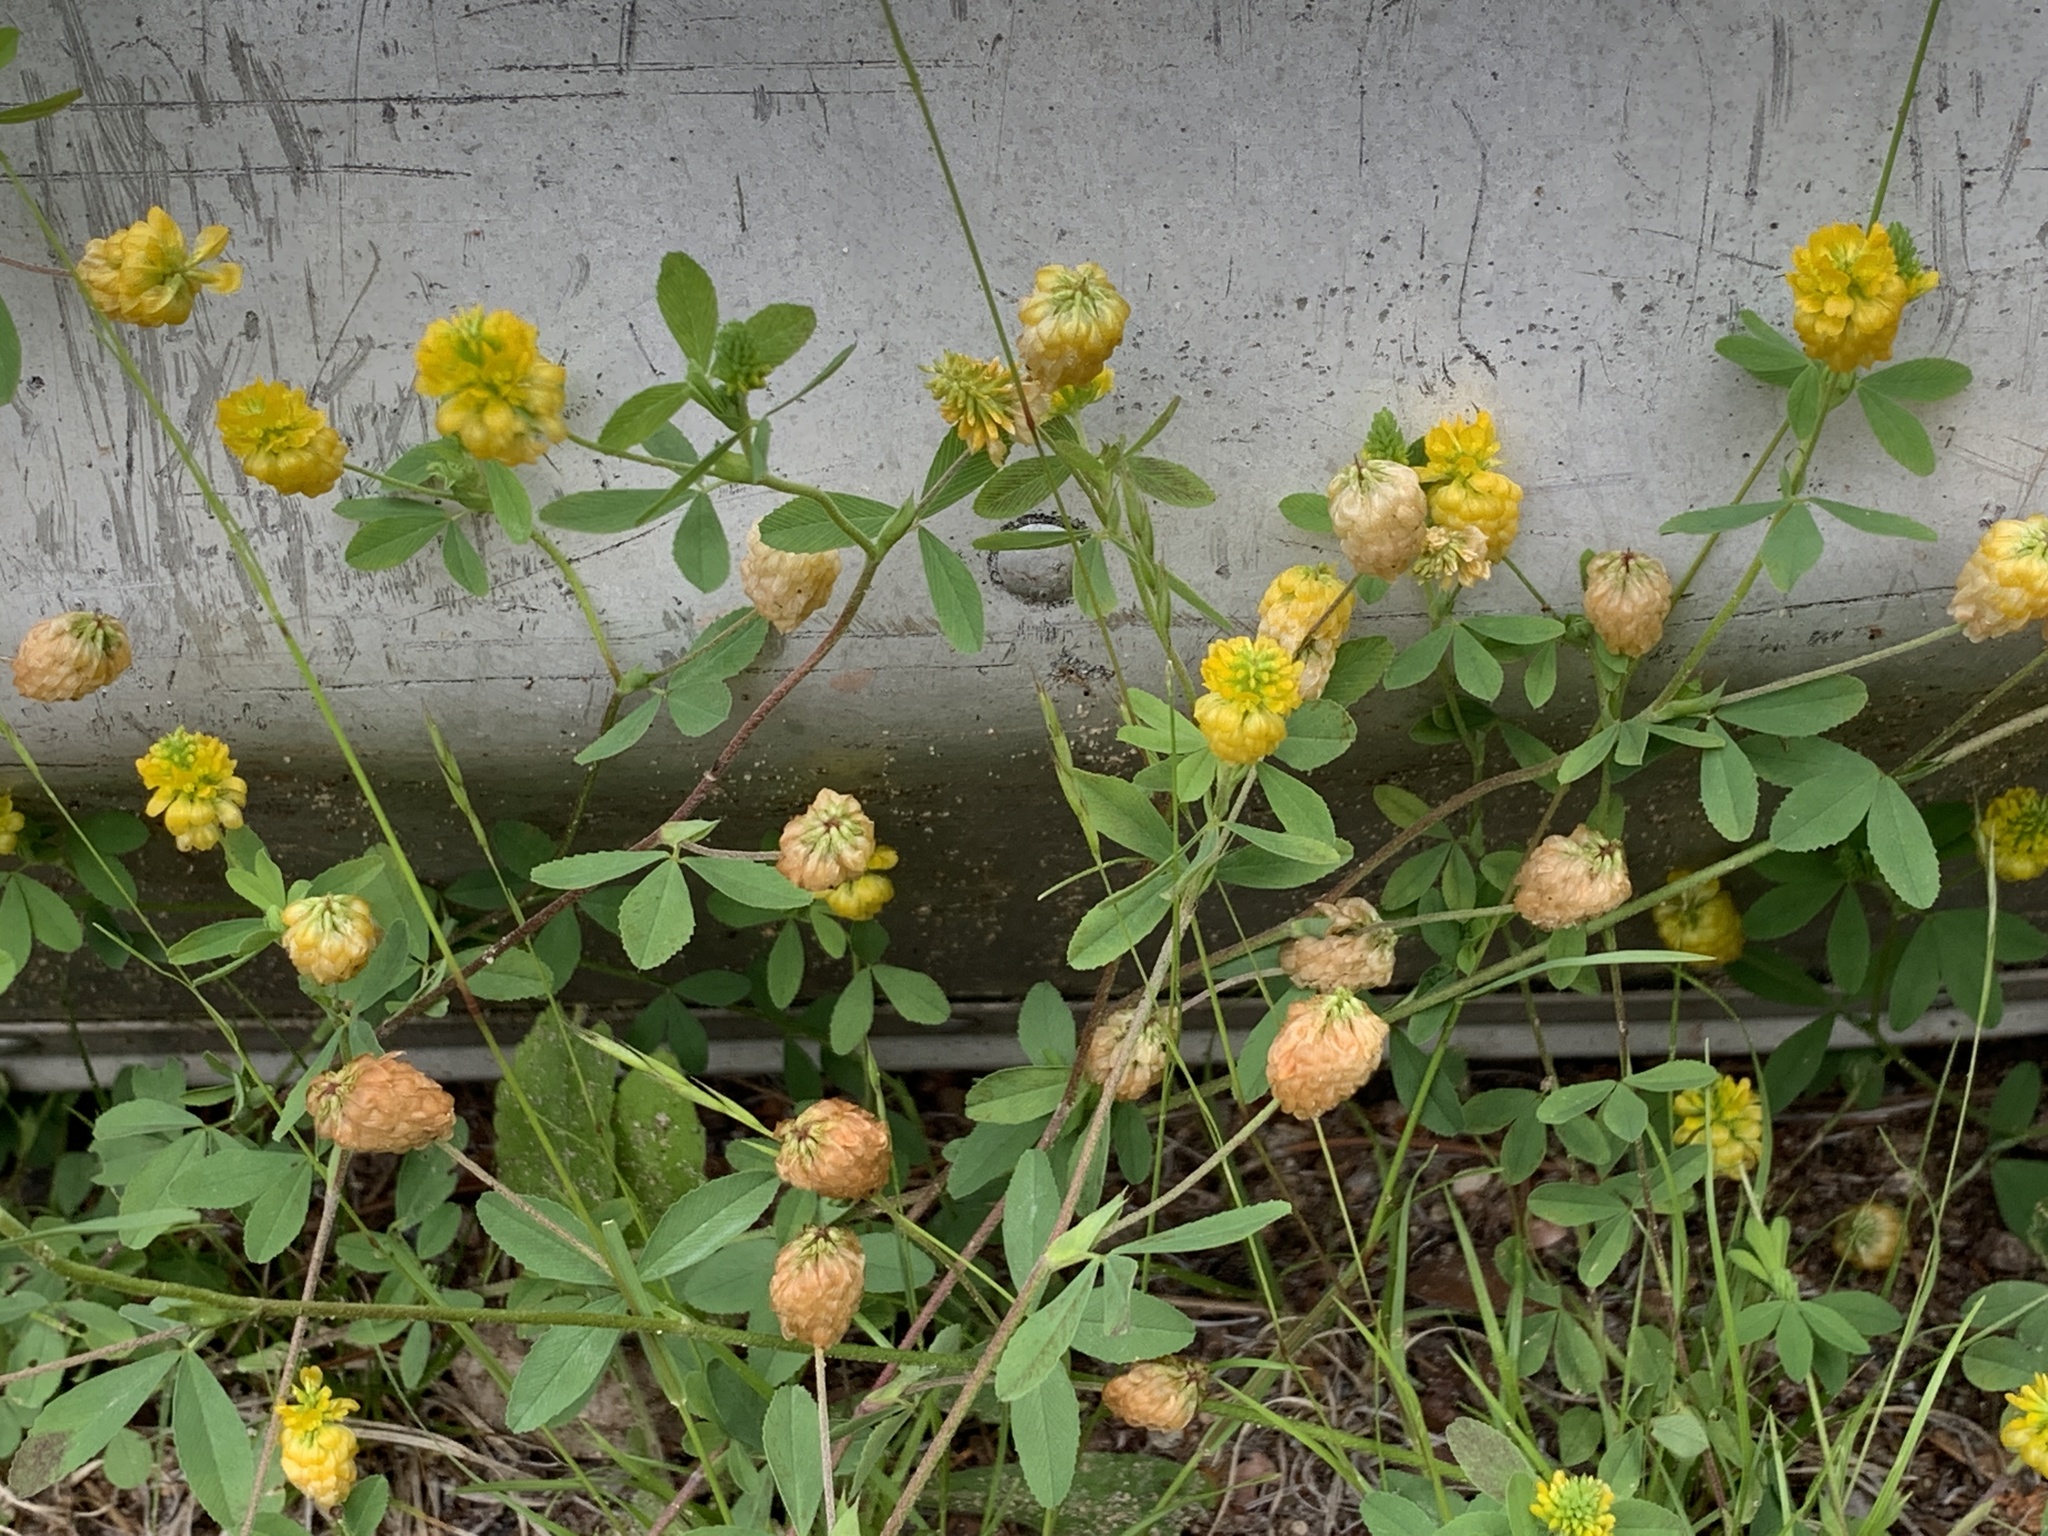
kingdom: Plantae
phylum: Tracheophyta
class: Magnoliopsida
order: Fabales
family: Fabaceae
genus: Trifolium
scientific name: Trifolium aureum
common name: Golden clover
